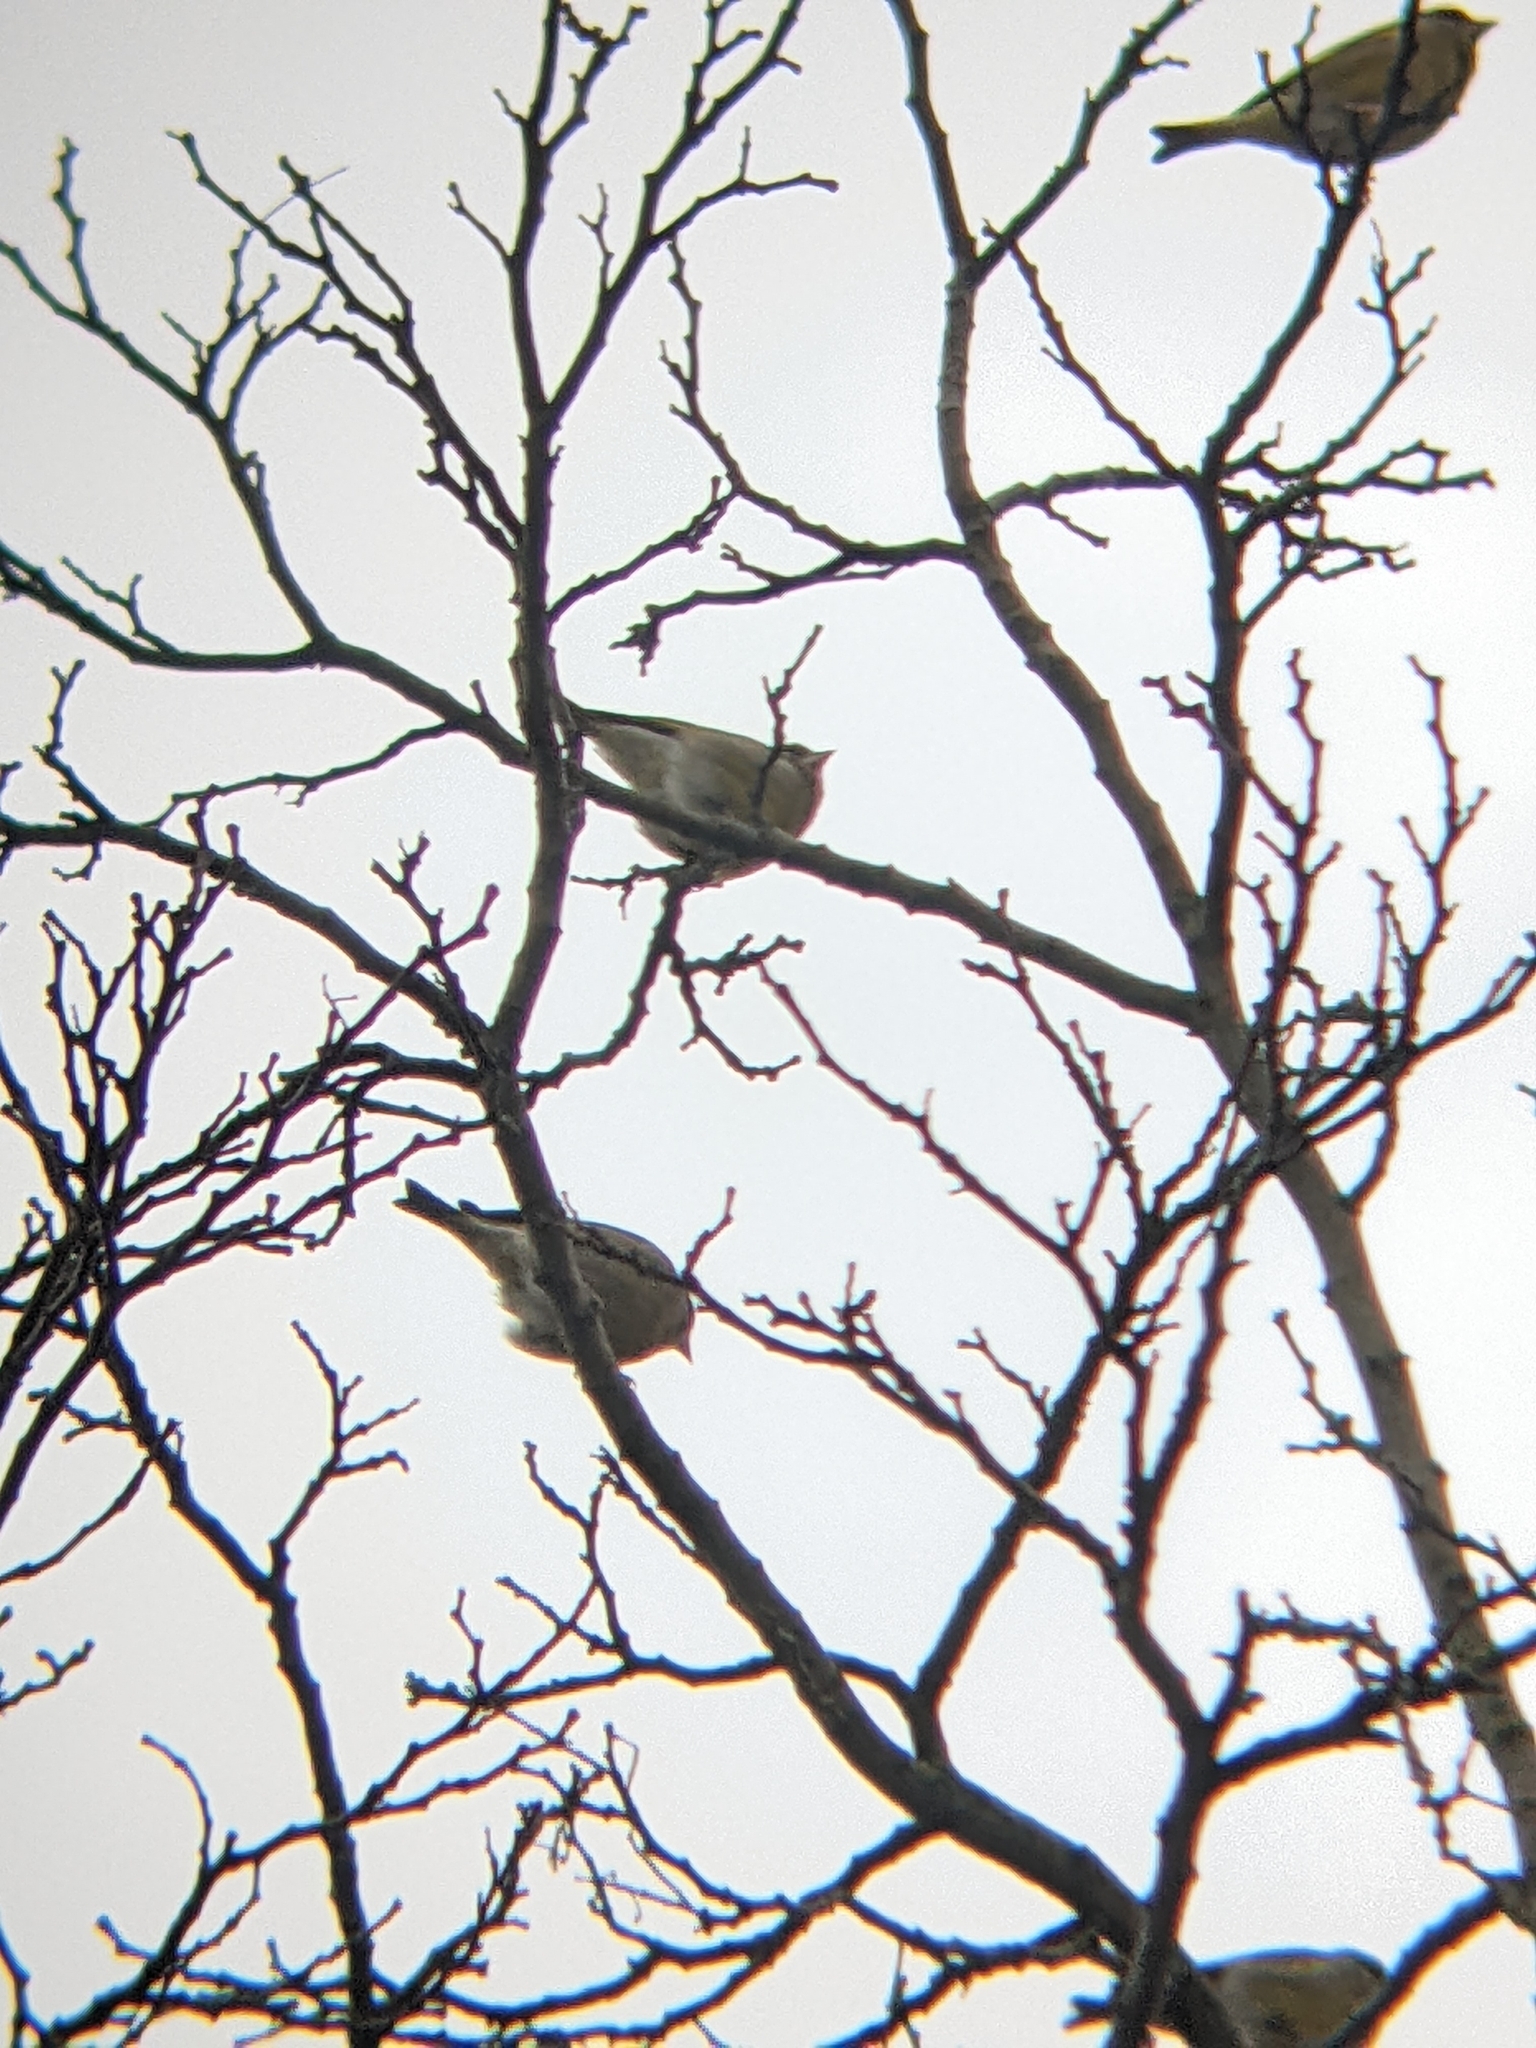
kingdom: Plantae
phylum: Tracheophyta
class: Liliopsida
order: Poales
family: Poaceae
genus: Chloris
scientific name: Chloris chloris
